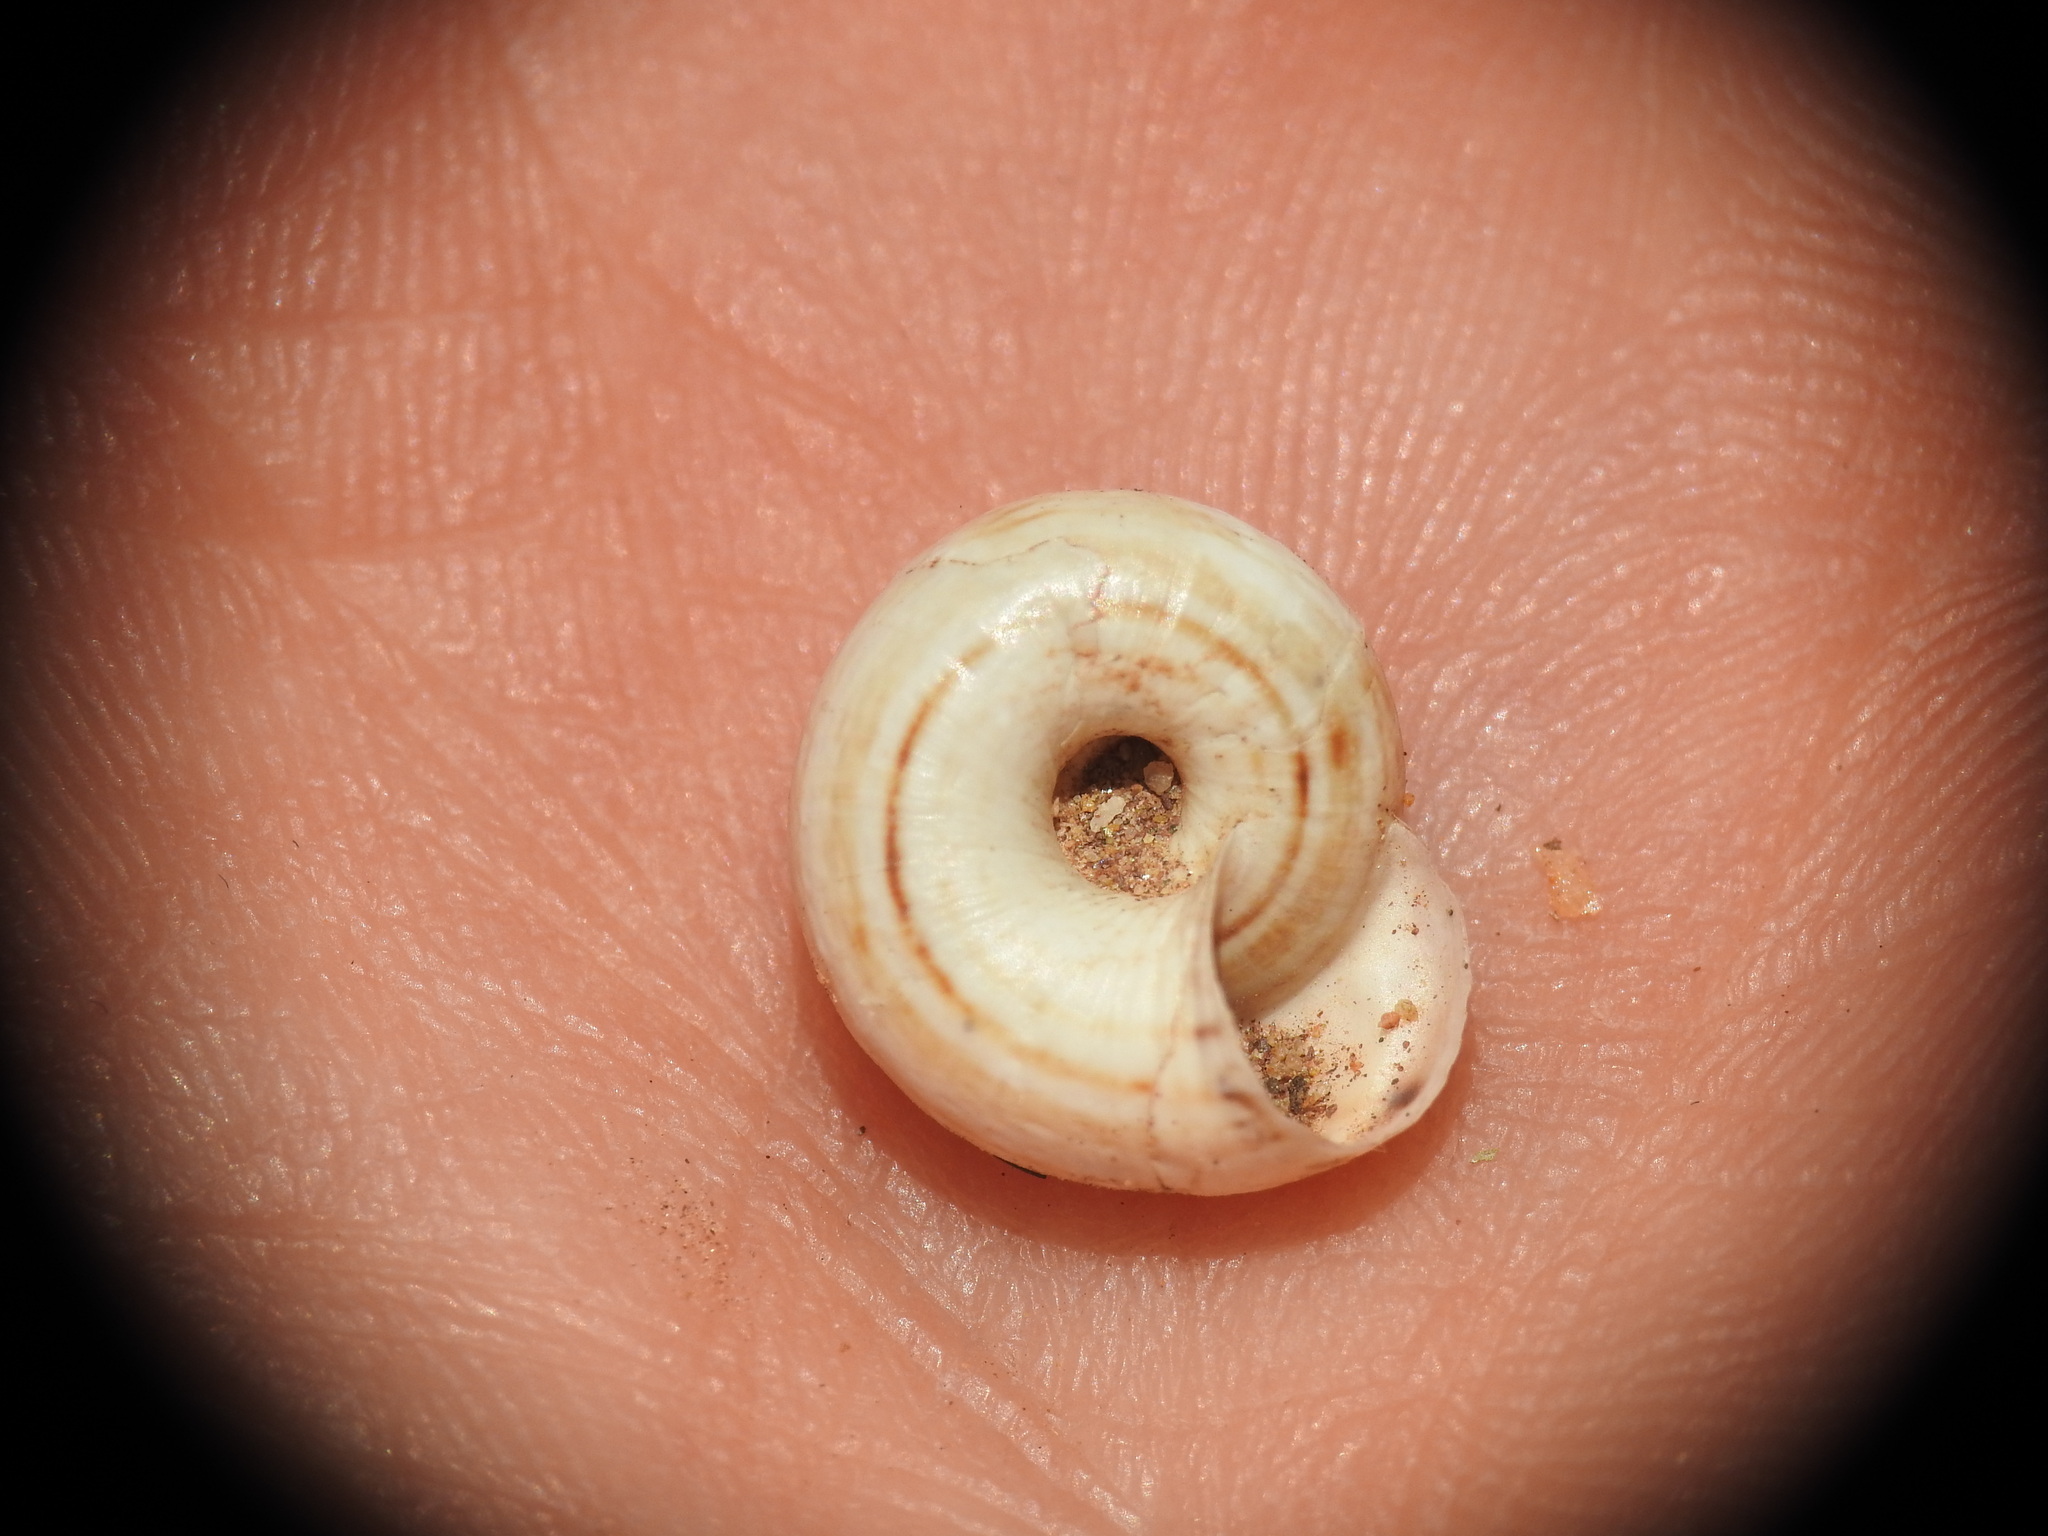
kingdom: Animalia
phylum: Mollusca
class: Gastropoda
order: Stylommatophora
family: Geomitridae
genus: Pseudoxerophila
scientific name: Pseudoxerophila bathytera
